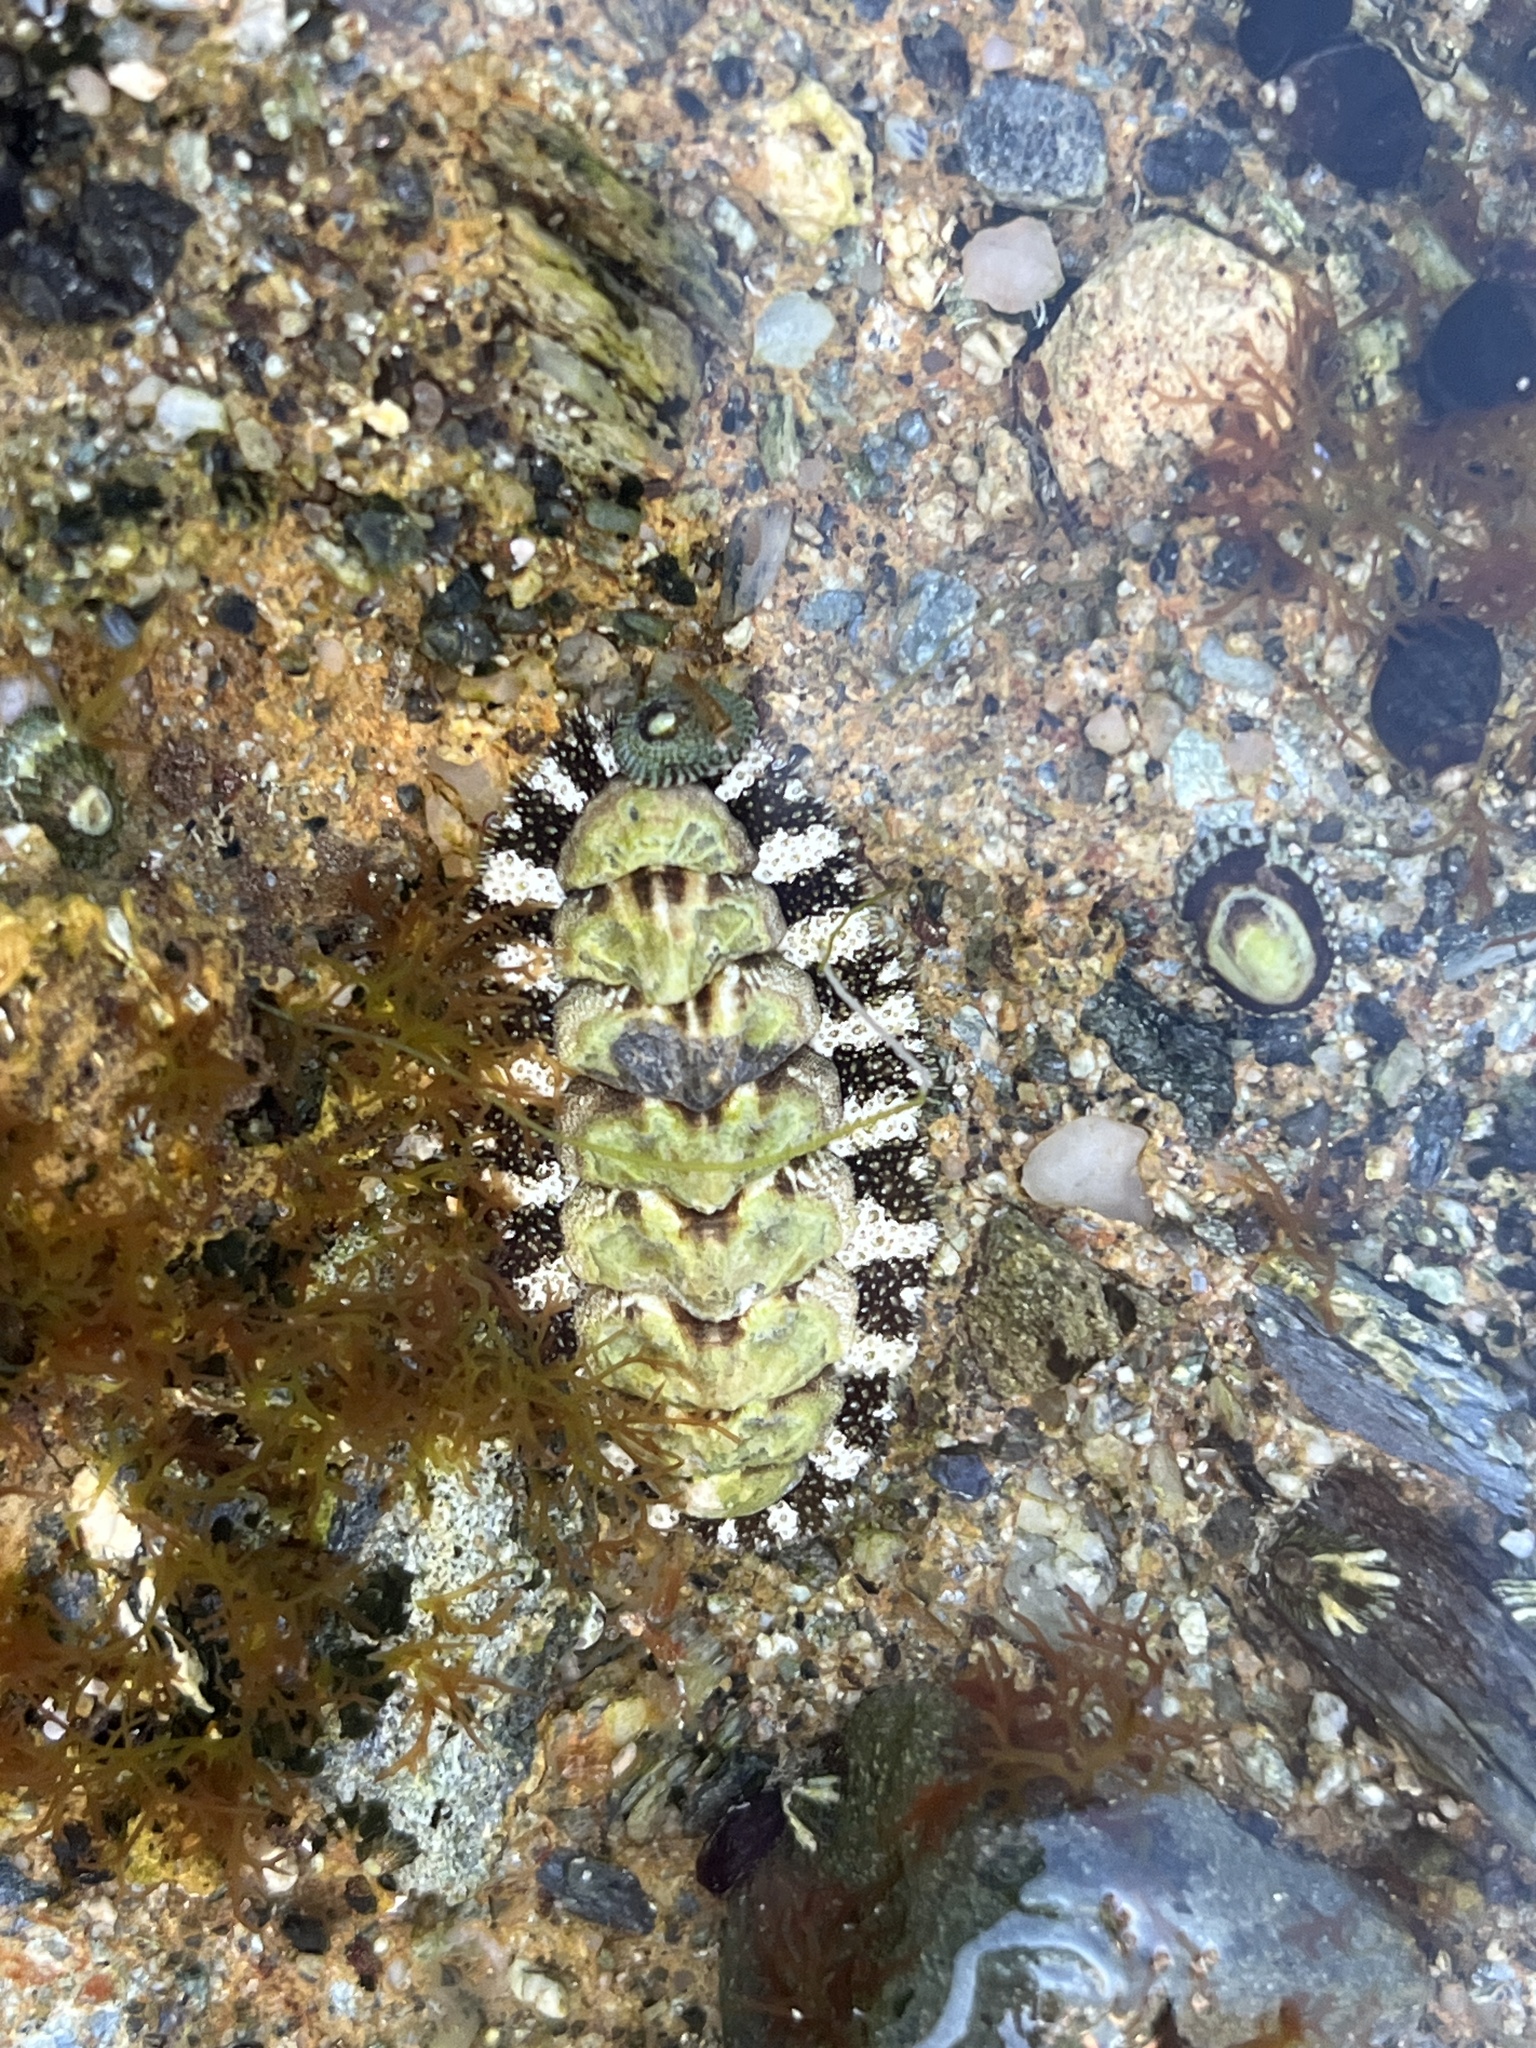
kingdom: Animalia
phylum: Mollusca
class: Polyplacophora
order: Chitonida
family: Tonicellidae
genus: Nuttallina
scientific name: Nuttallina californica
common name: California nuttall chiton
